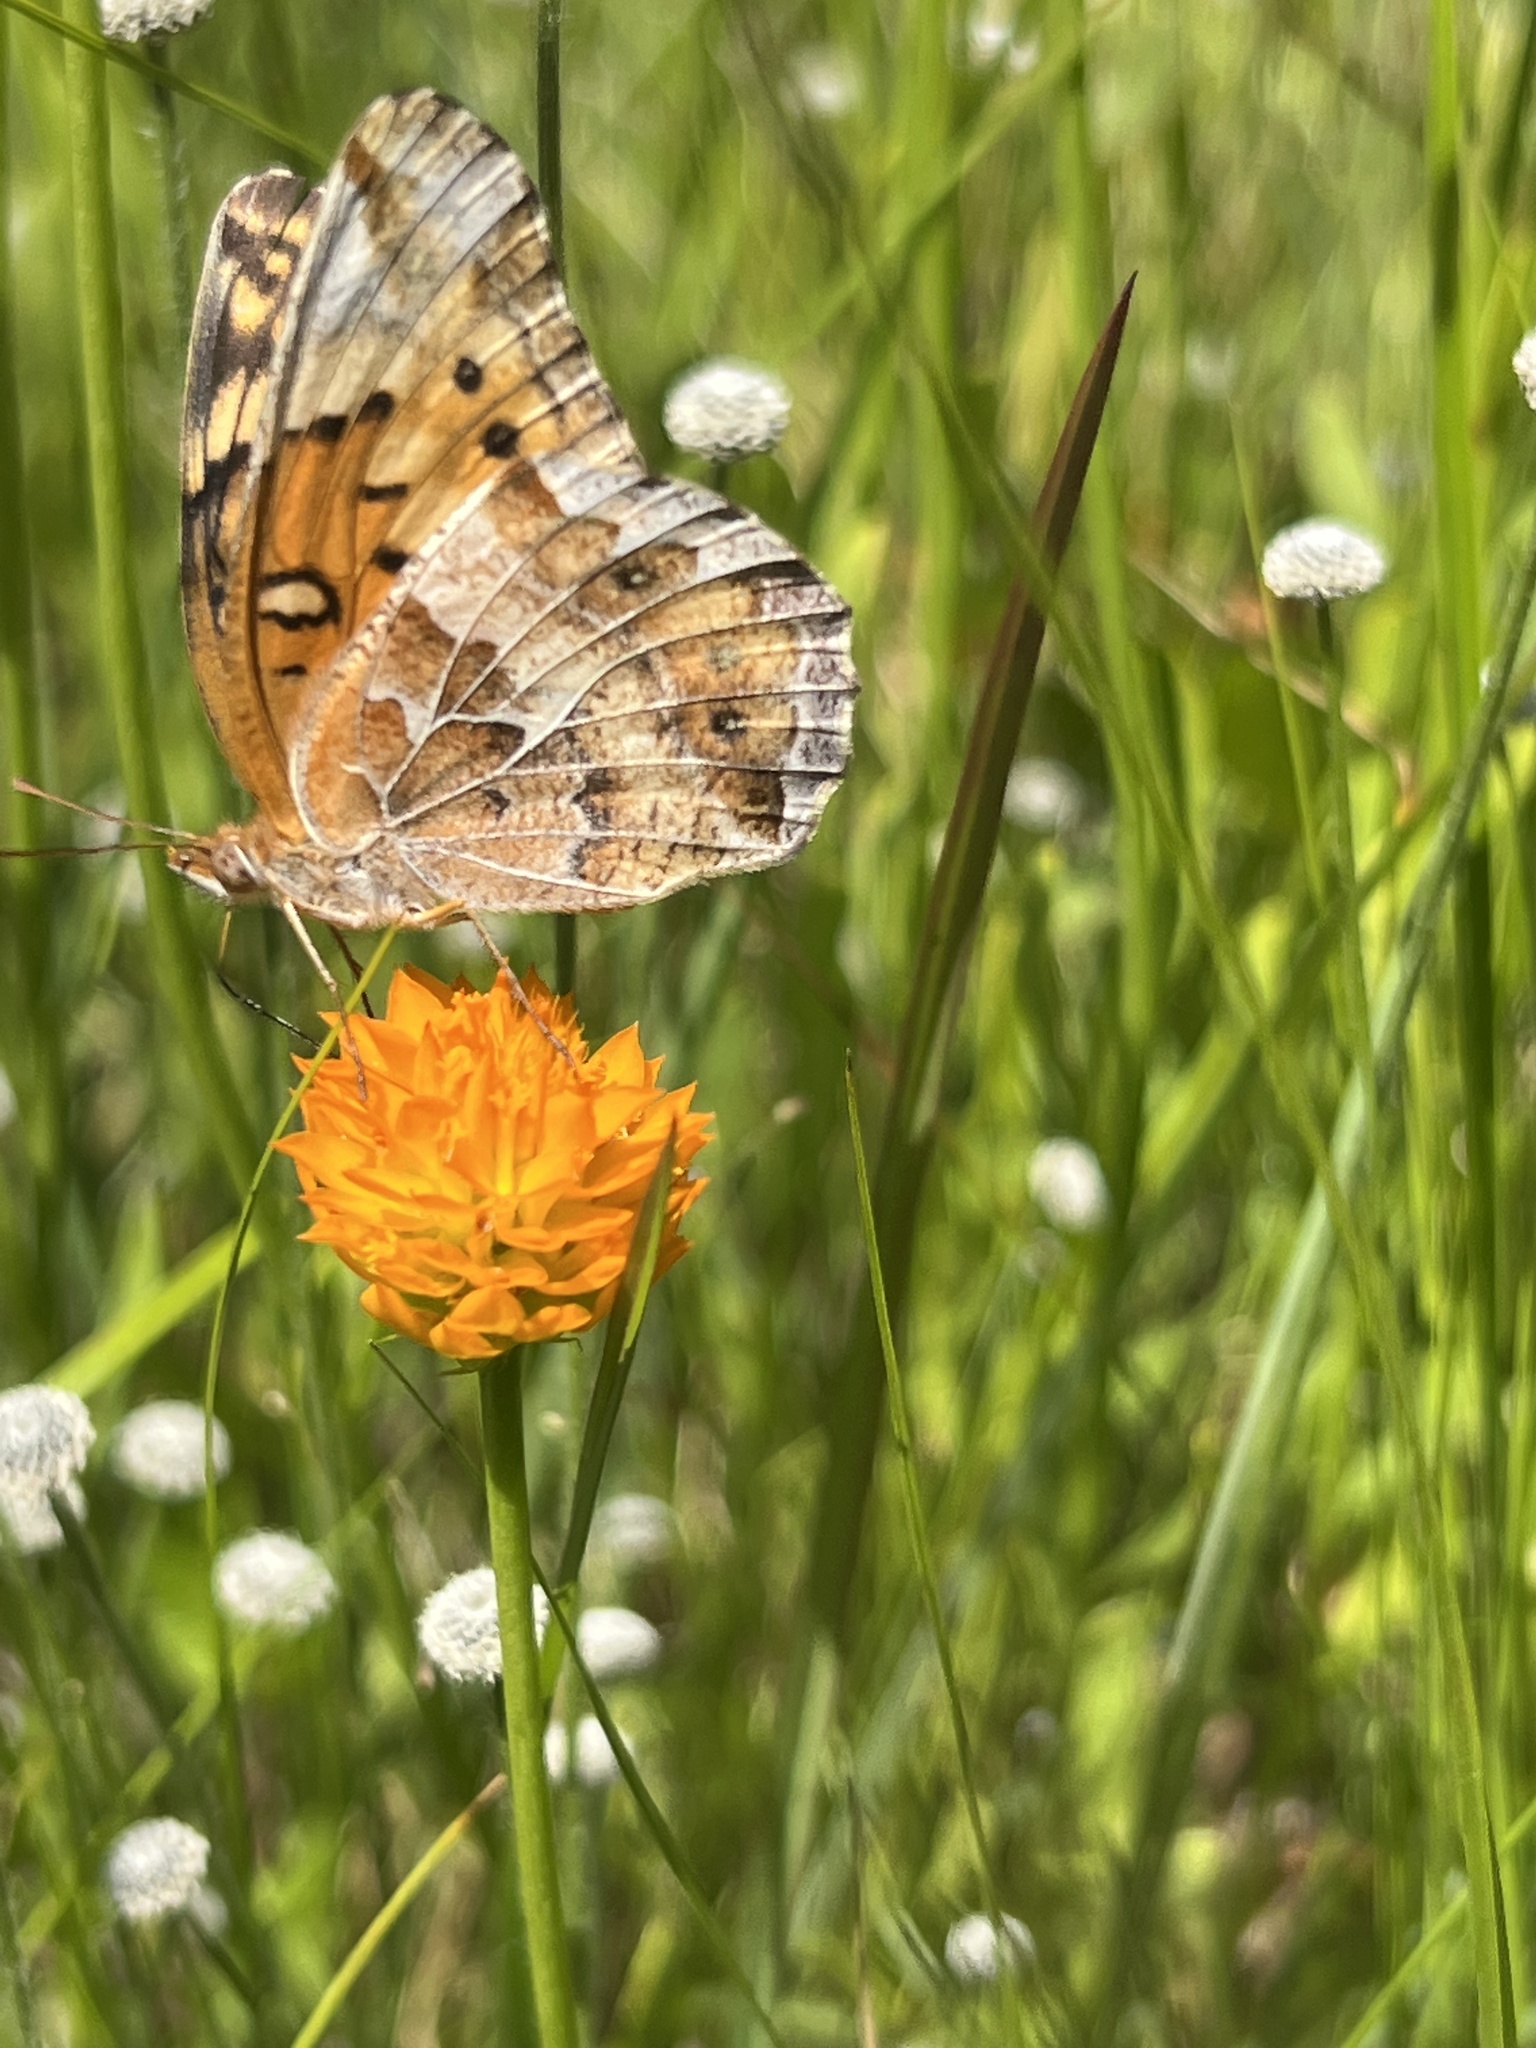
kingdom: Animalia
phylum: Arthropoda
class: Insecta
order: Lepidoptera
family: Nymphalidae
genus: Euptoieta
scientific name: Euptoieta claudia
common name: Variegated fritillary
